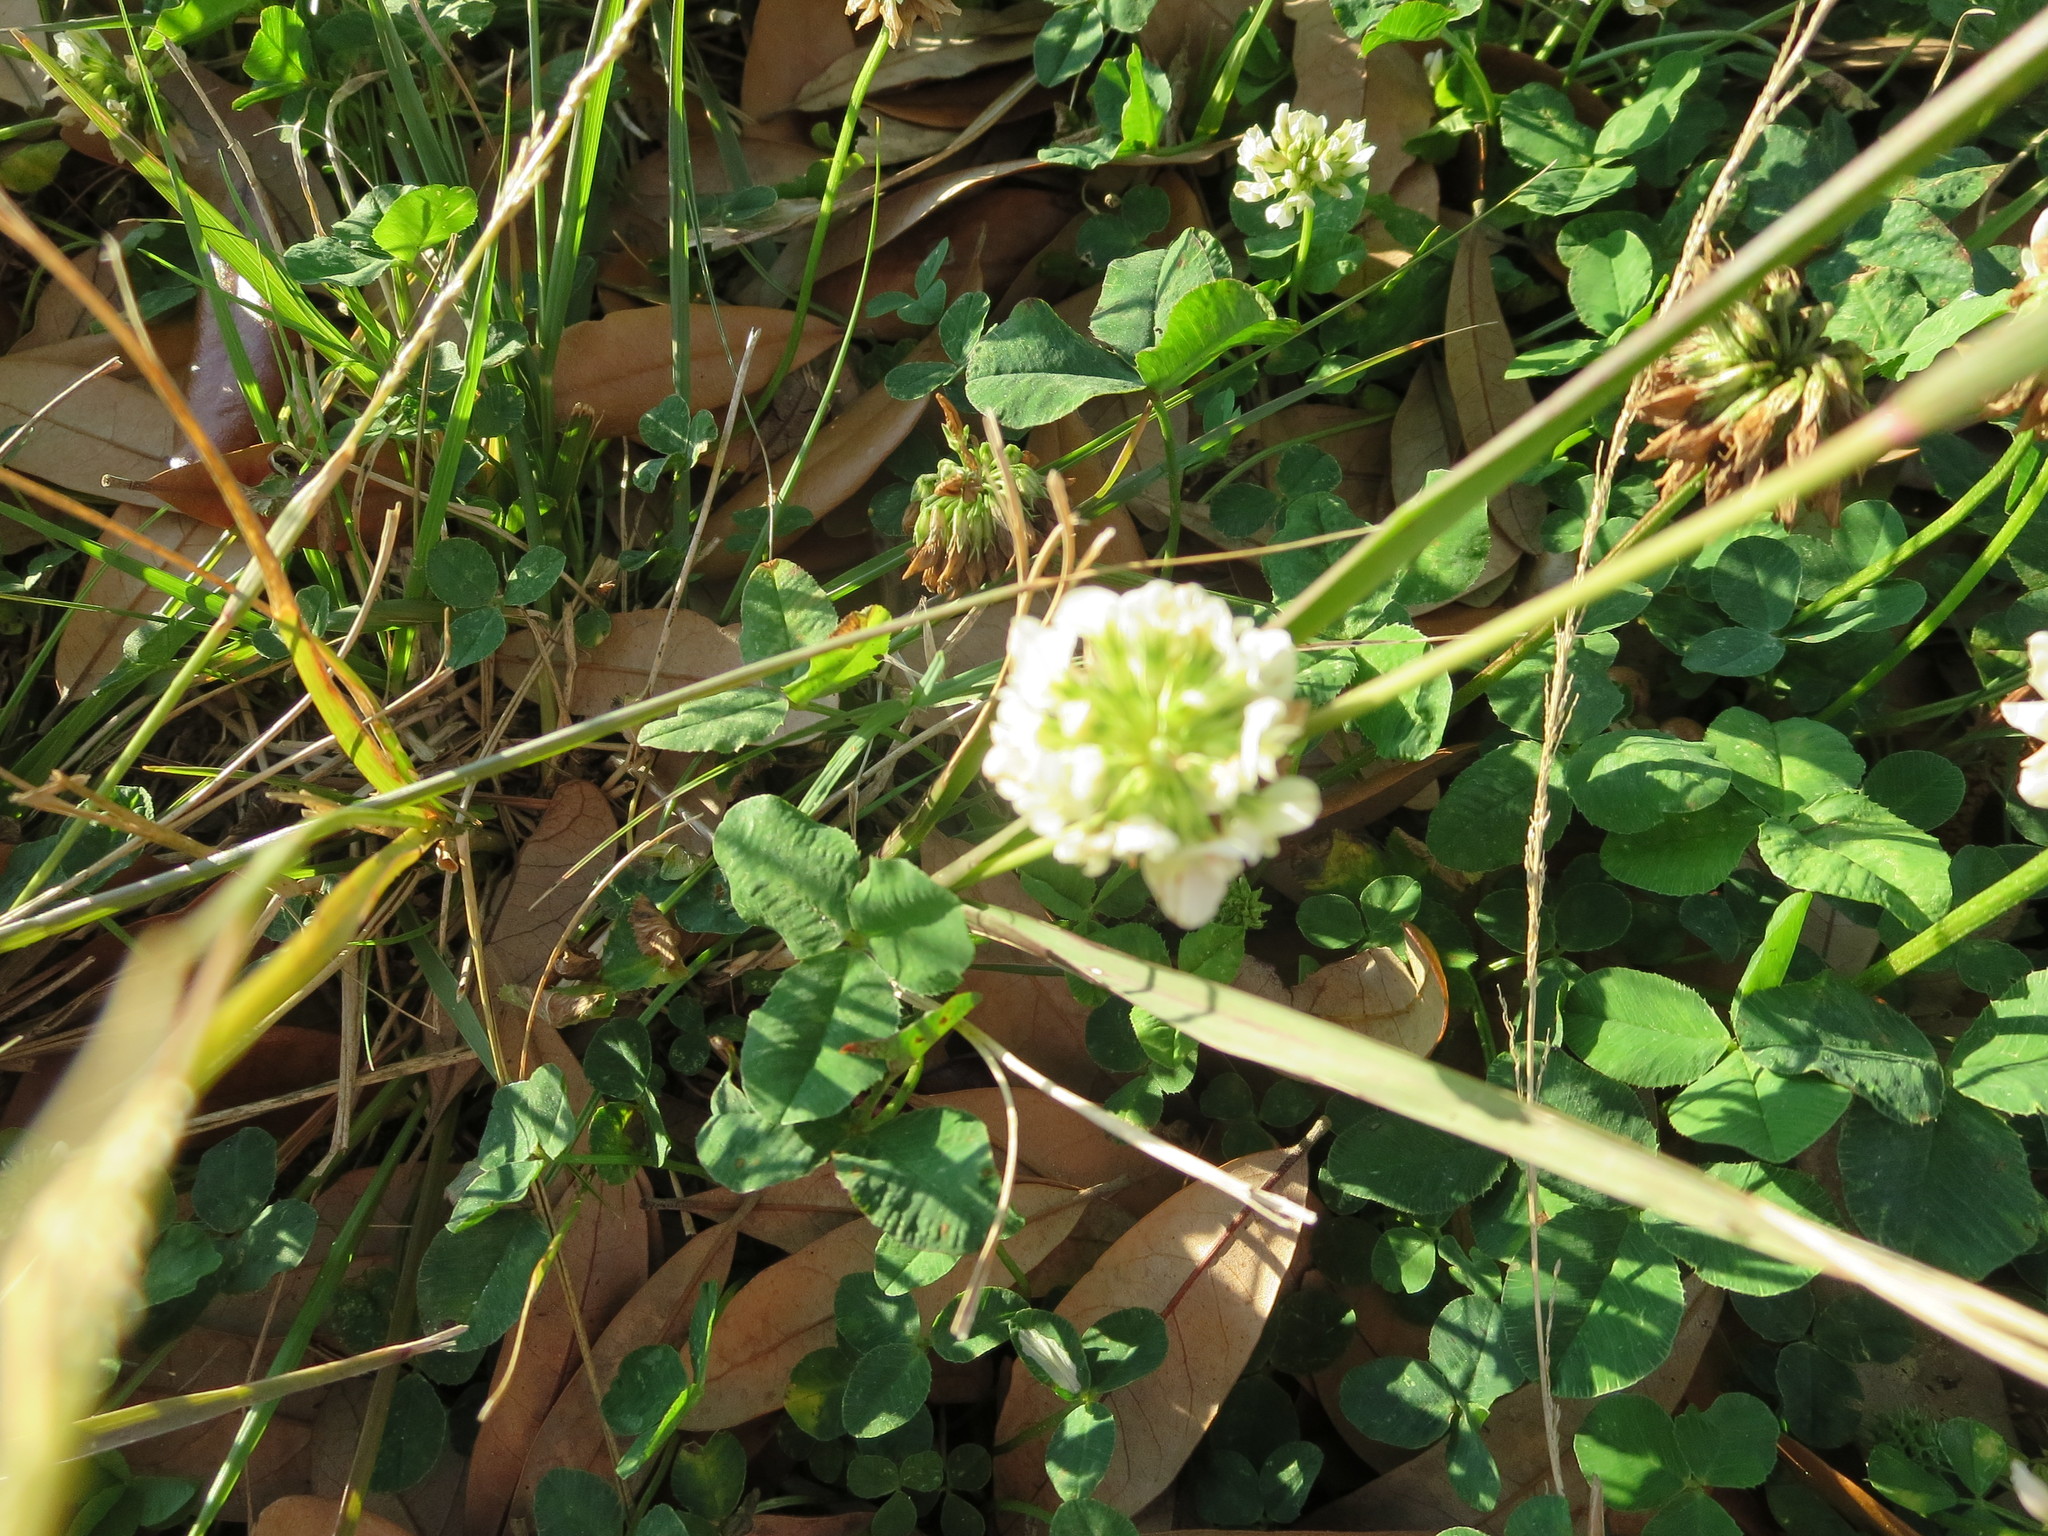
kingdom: Plantae
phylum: Tracheophyta
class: Magnoliopsida
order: Fabales
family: Fabaceae
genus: Trifolium
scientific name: Trifolium repens
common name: White clover
